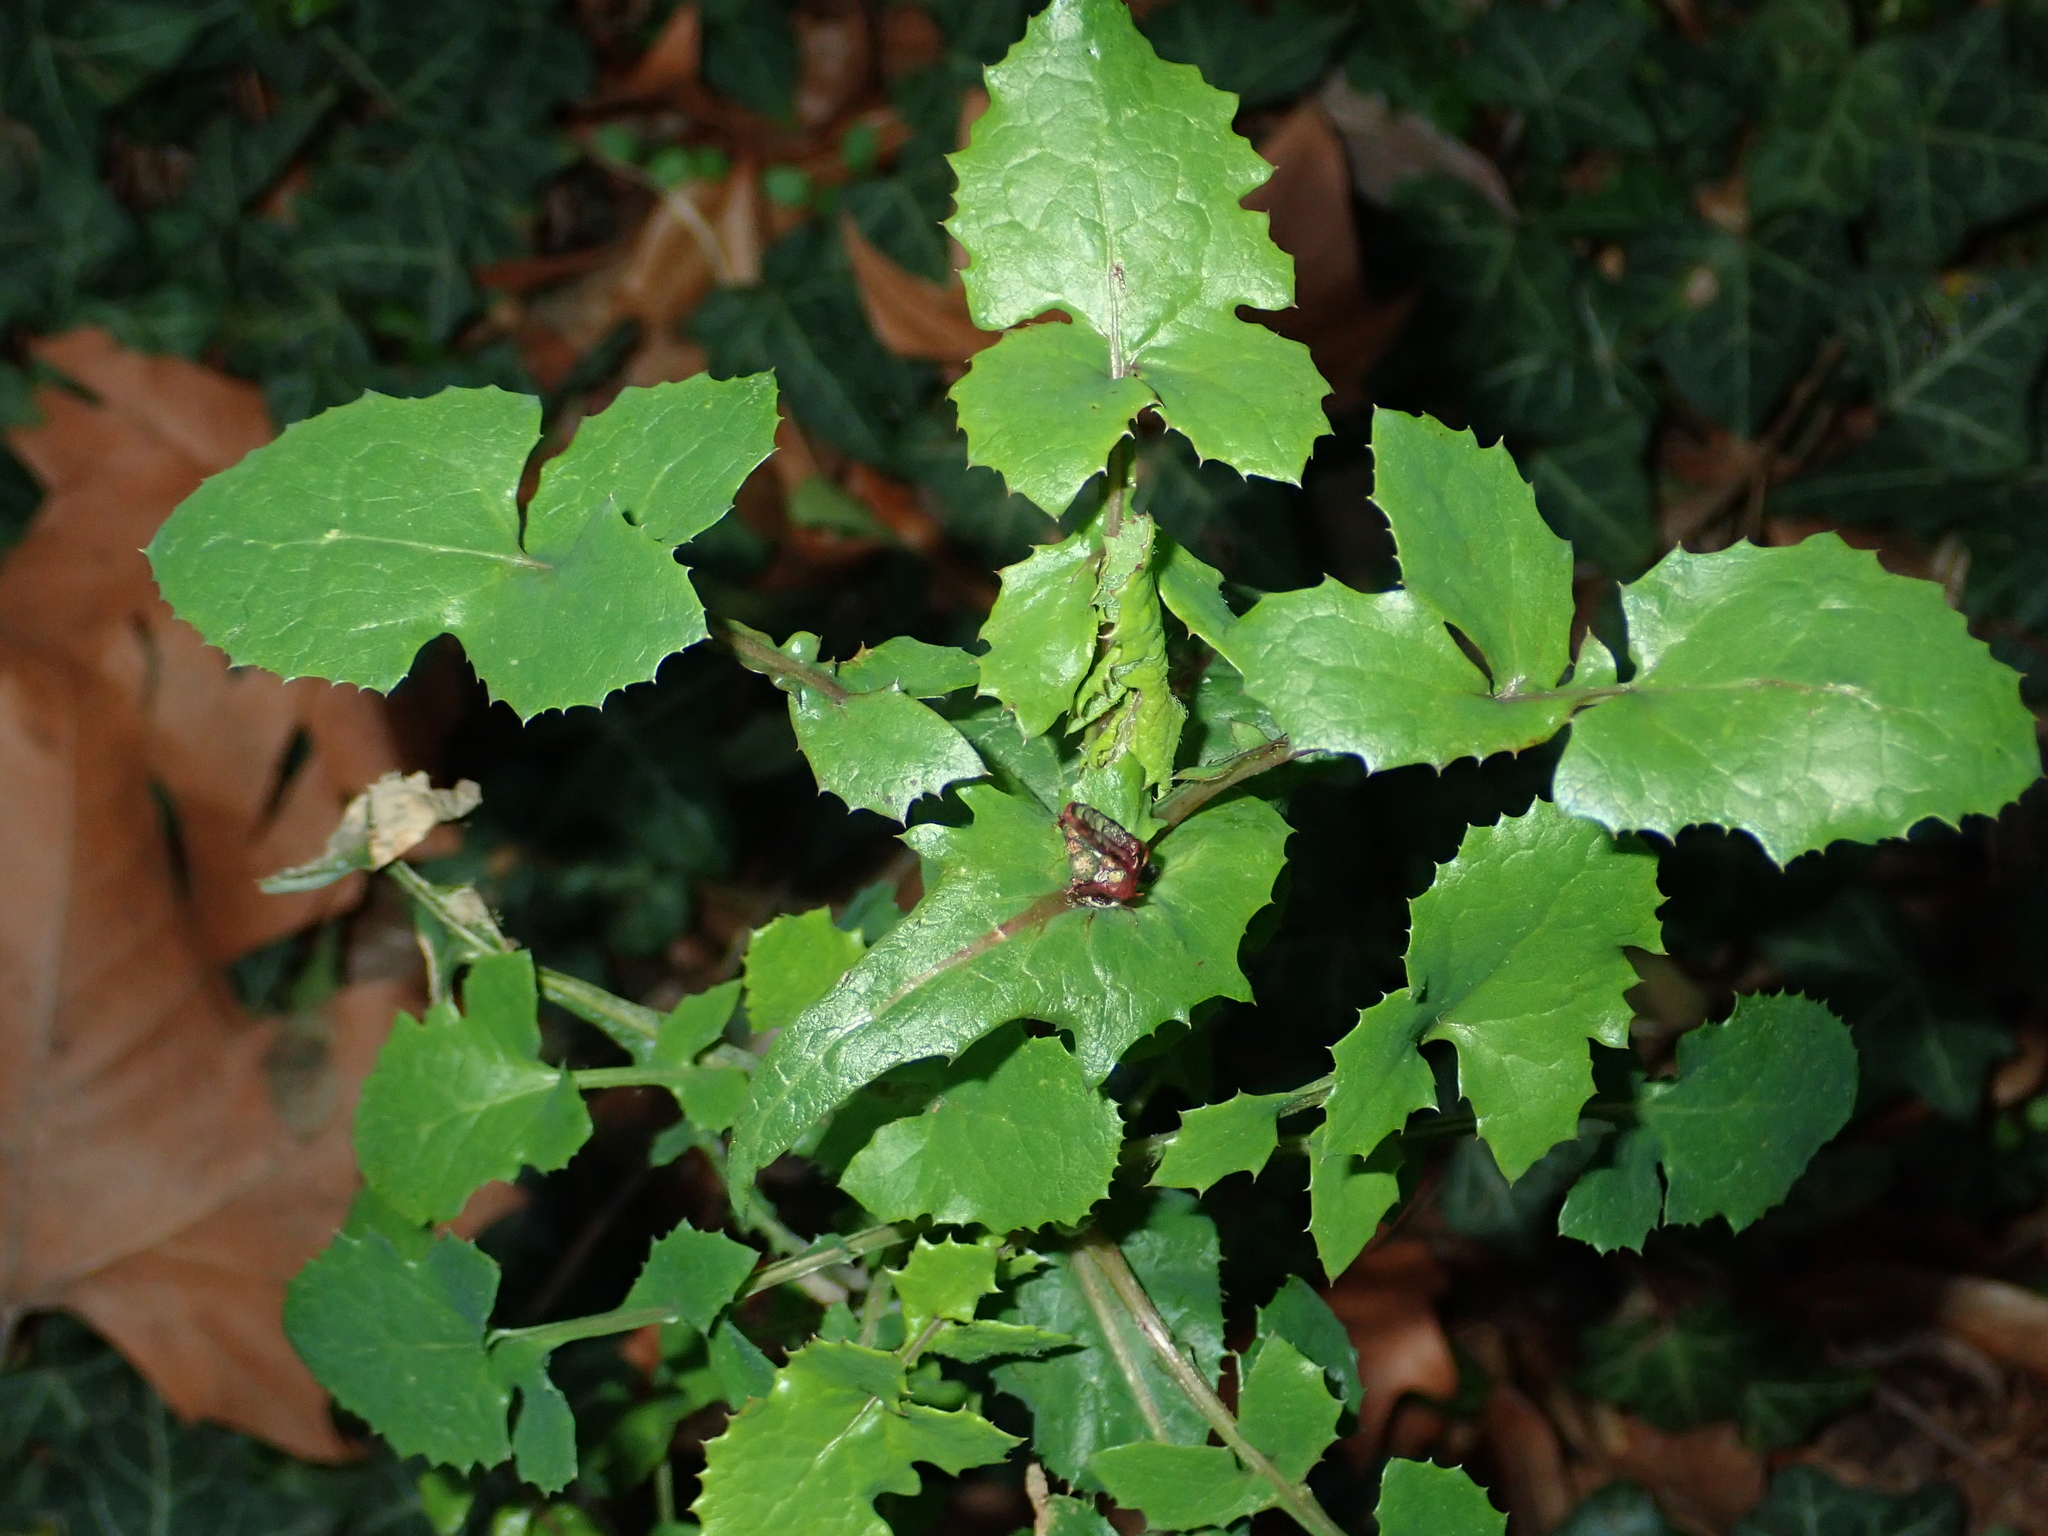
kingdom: Plantae
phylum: Tracheophyta
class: Magnoliopsida
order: Asterales
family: Asteraceae
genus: Sonchus
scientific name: Sonchus oleraceus
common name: Common sowthistle
